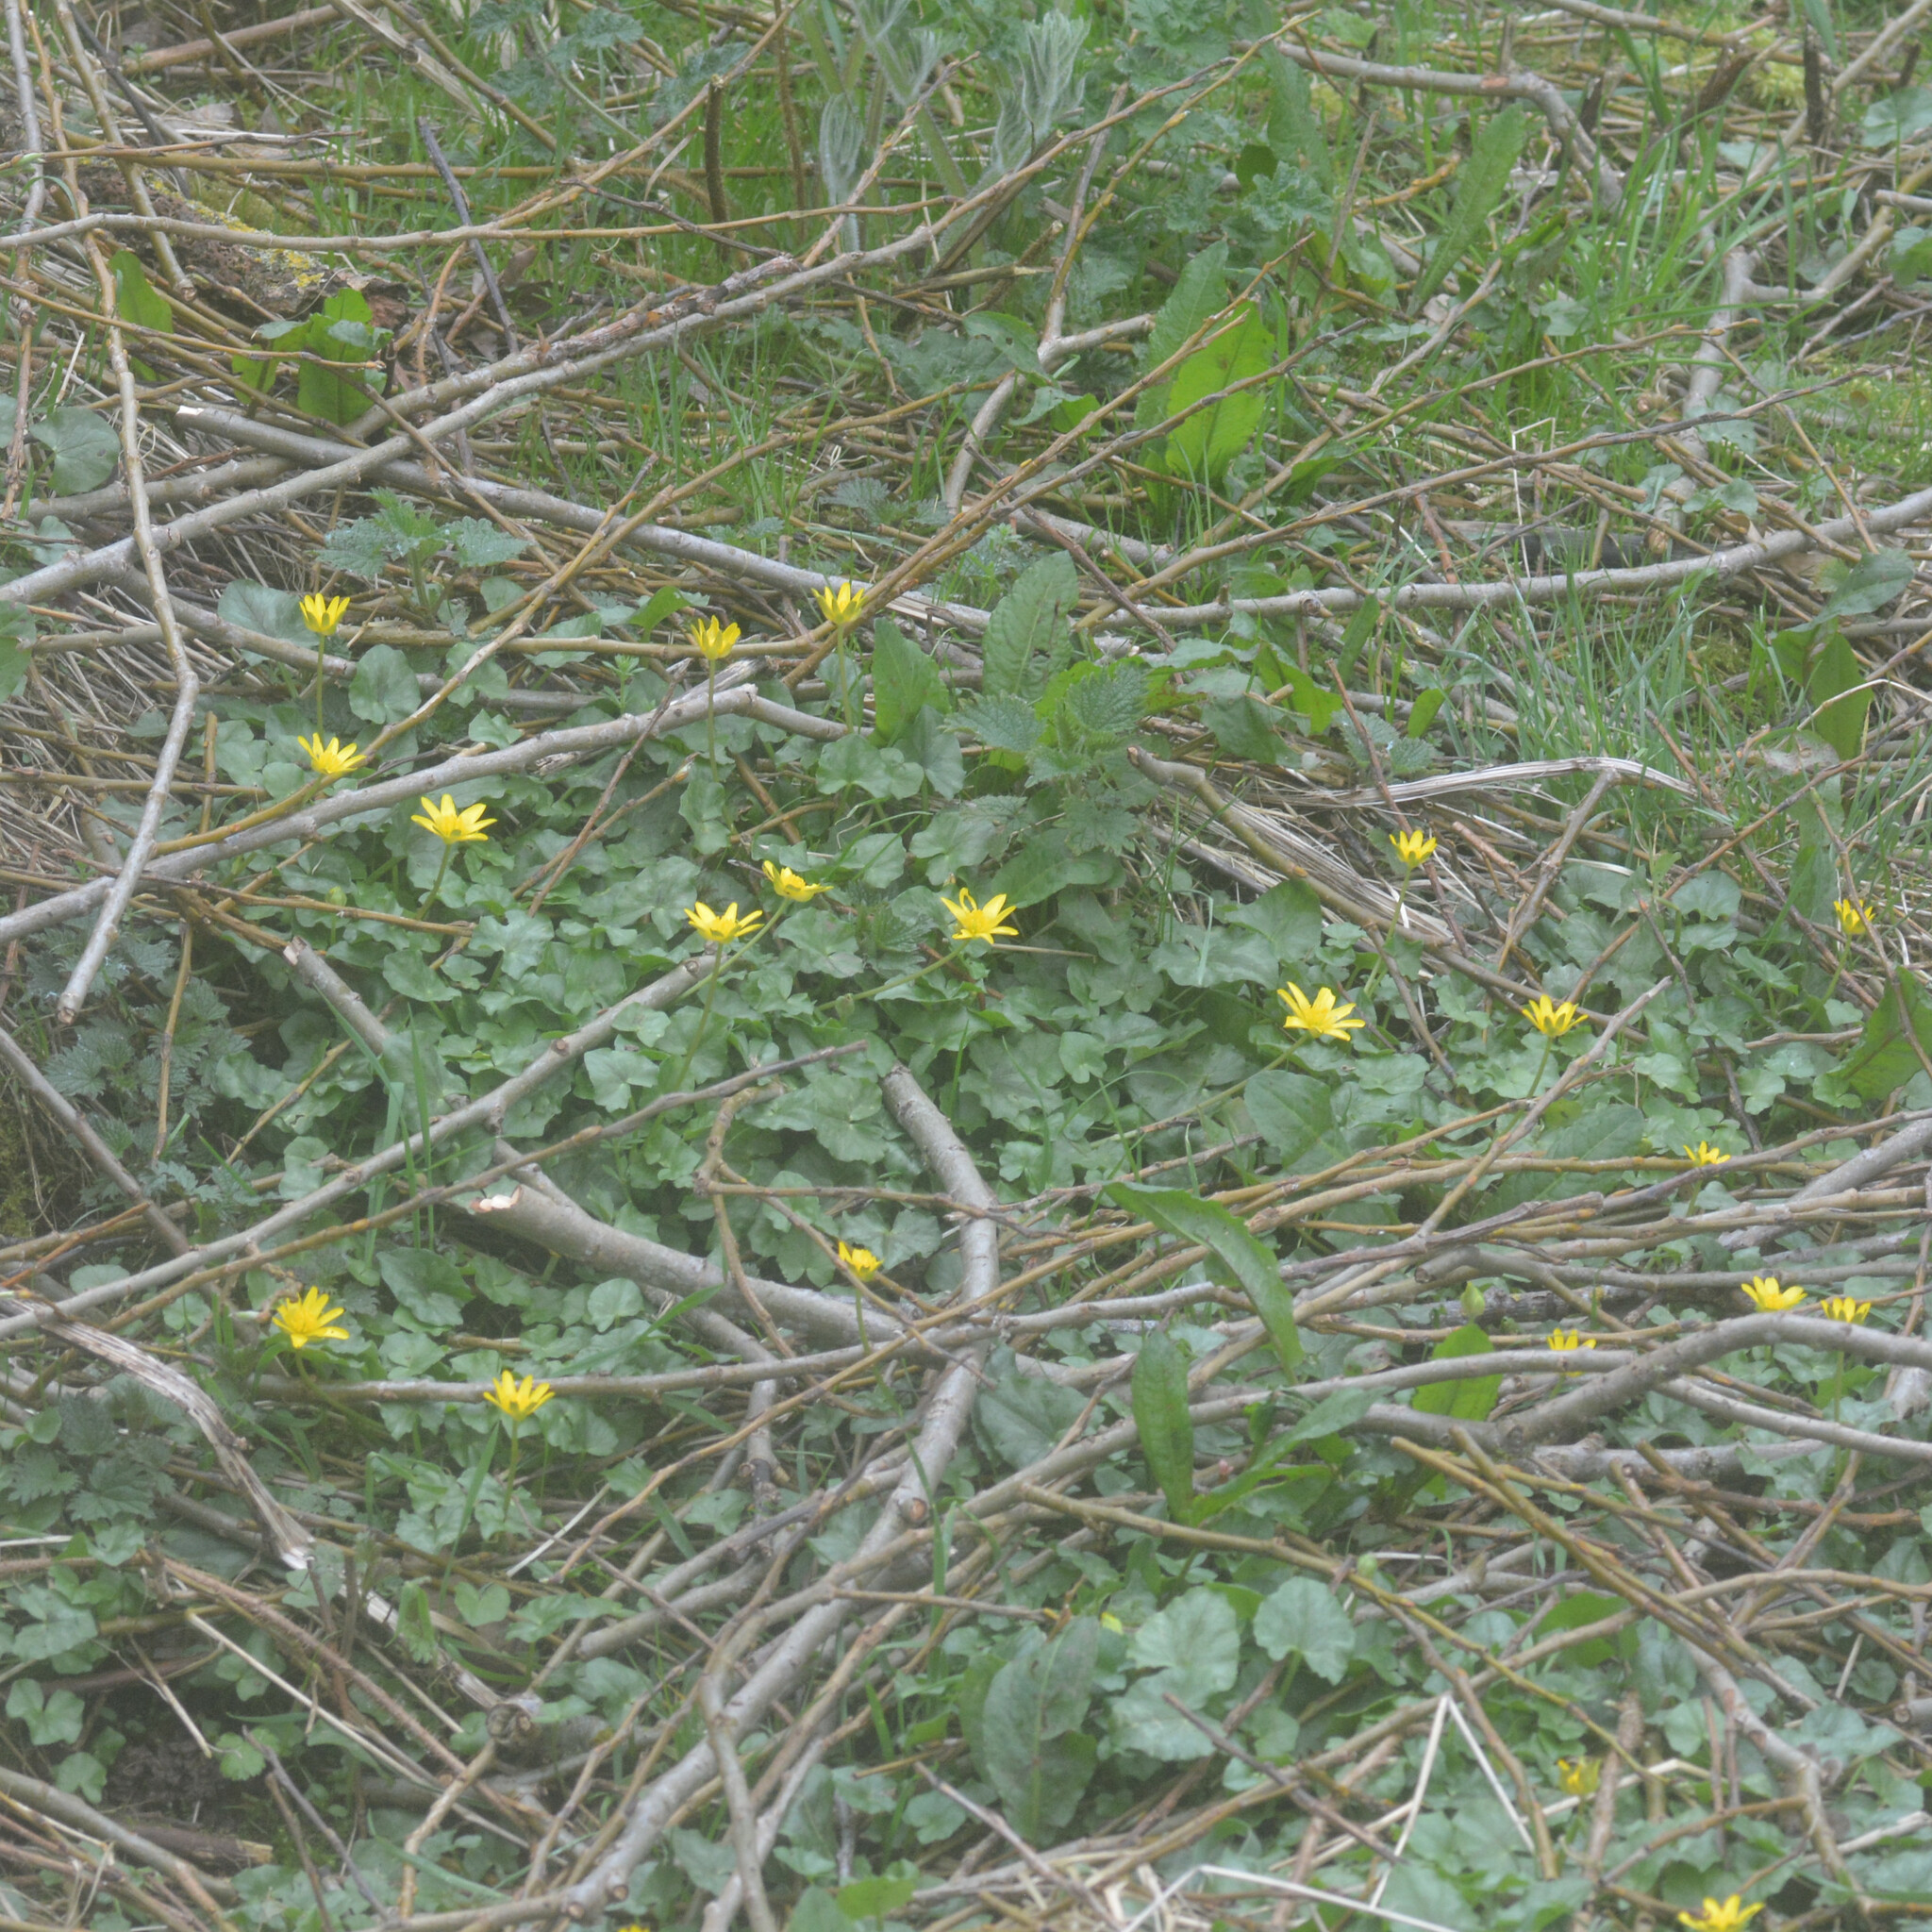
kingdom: Plantae
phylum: Tracheophyta
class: Magnoliopsida
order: Ranunculales
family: Ranunculaceae
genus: Ficaria
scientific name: Ficaria verna
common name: Lesser celandine
